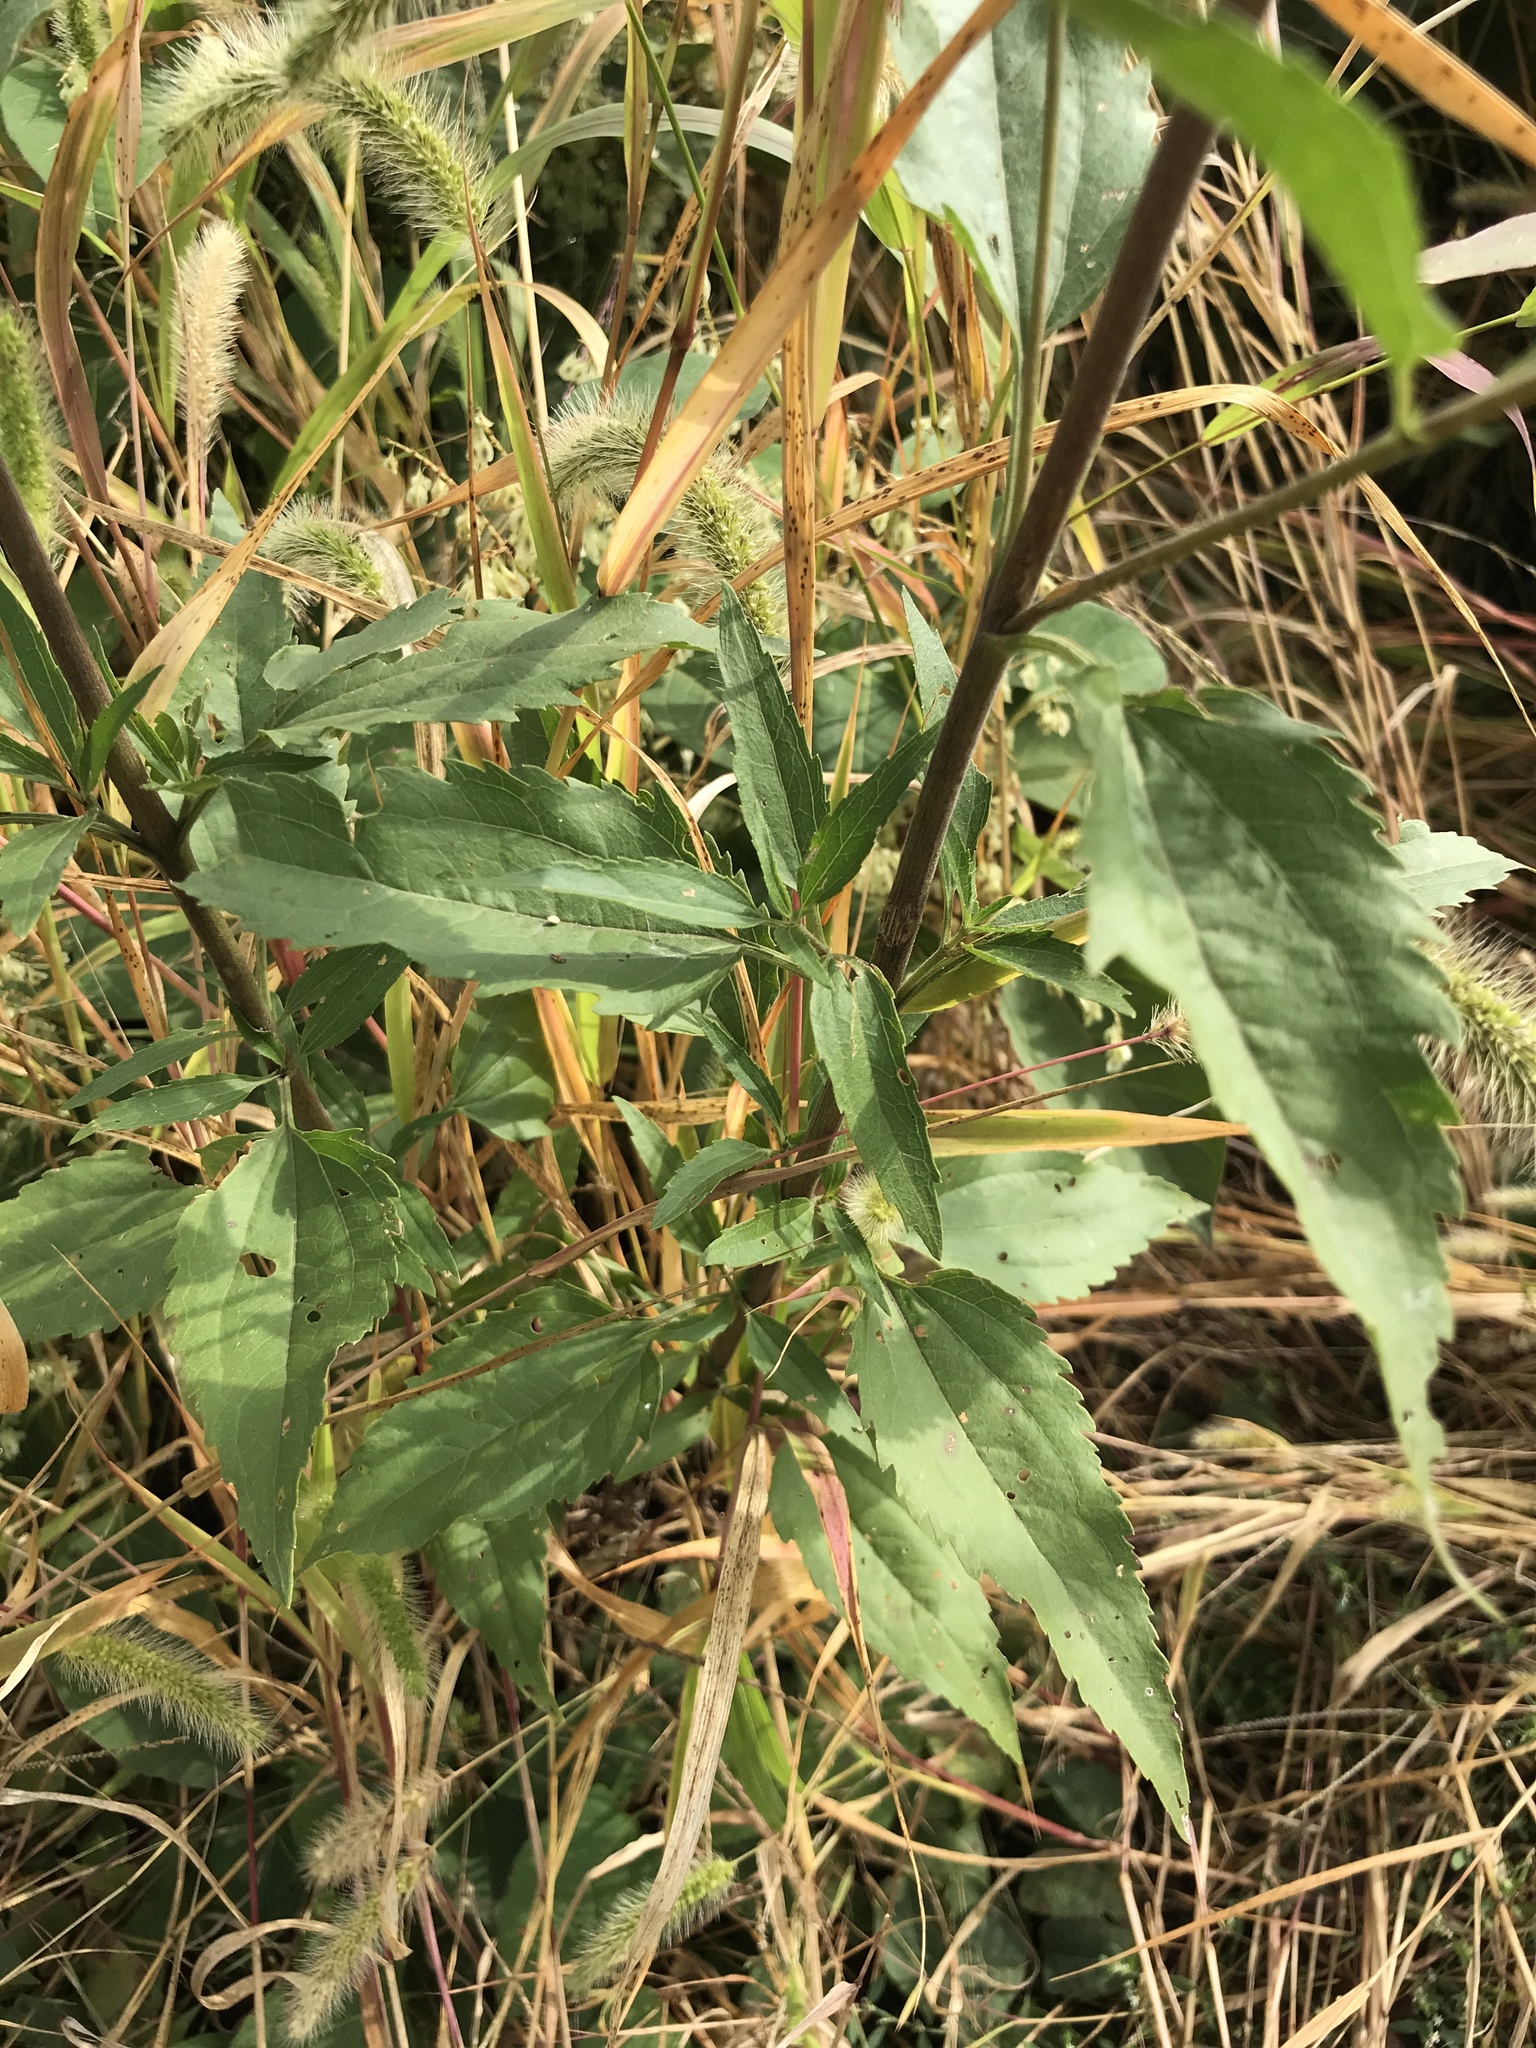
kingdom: Plantae
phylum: Tracheophyta
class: Magnoliopsida
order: Asterales
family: Asteraceae
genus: Eupatorium
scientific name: Eupatorium serotinum
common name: Late boneset
